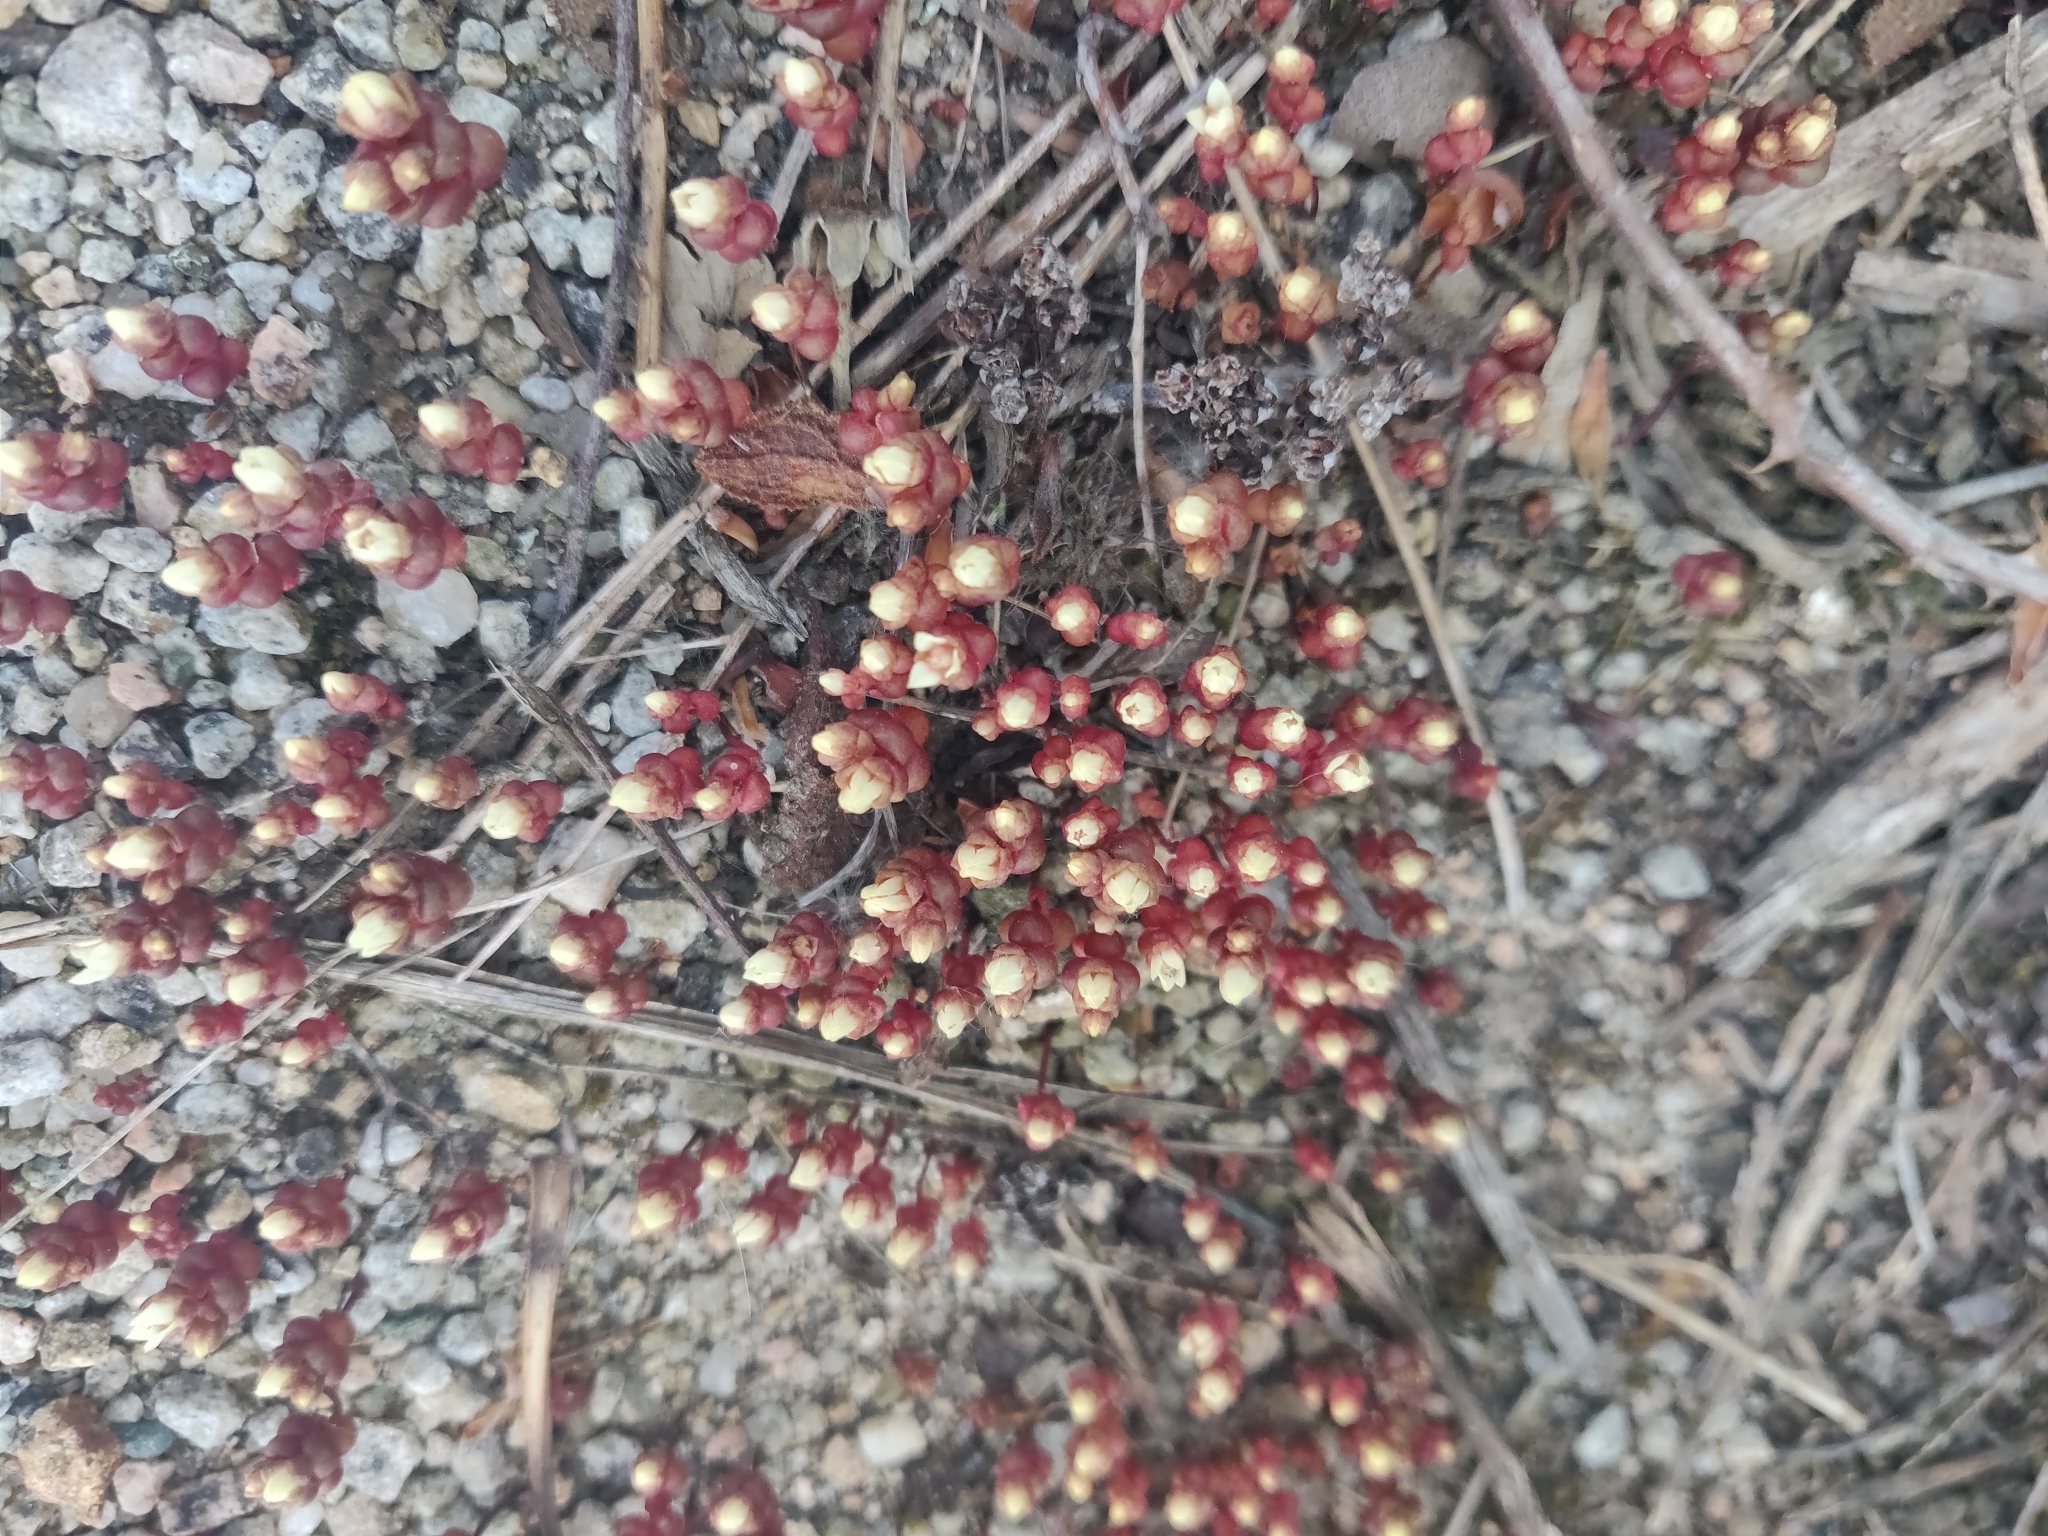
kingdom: Plantae
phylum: Tracheophyta
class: Magnoliopsida
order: Saxifragales
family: Crassulaceae
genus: Sedum
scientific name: Sedum andegavense
